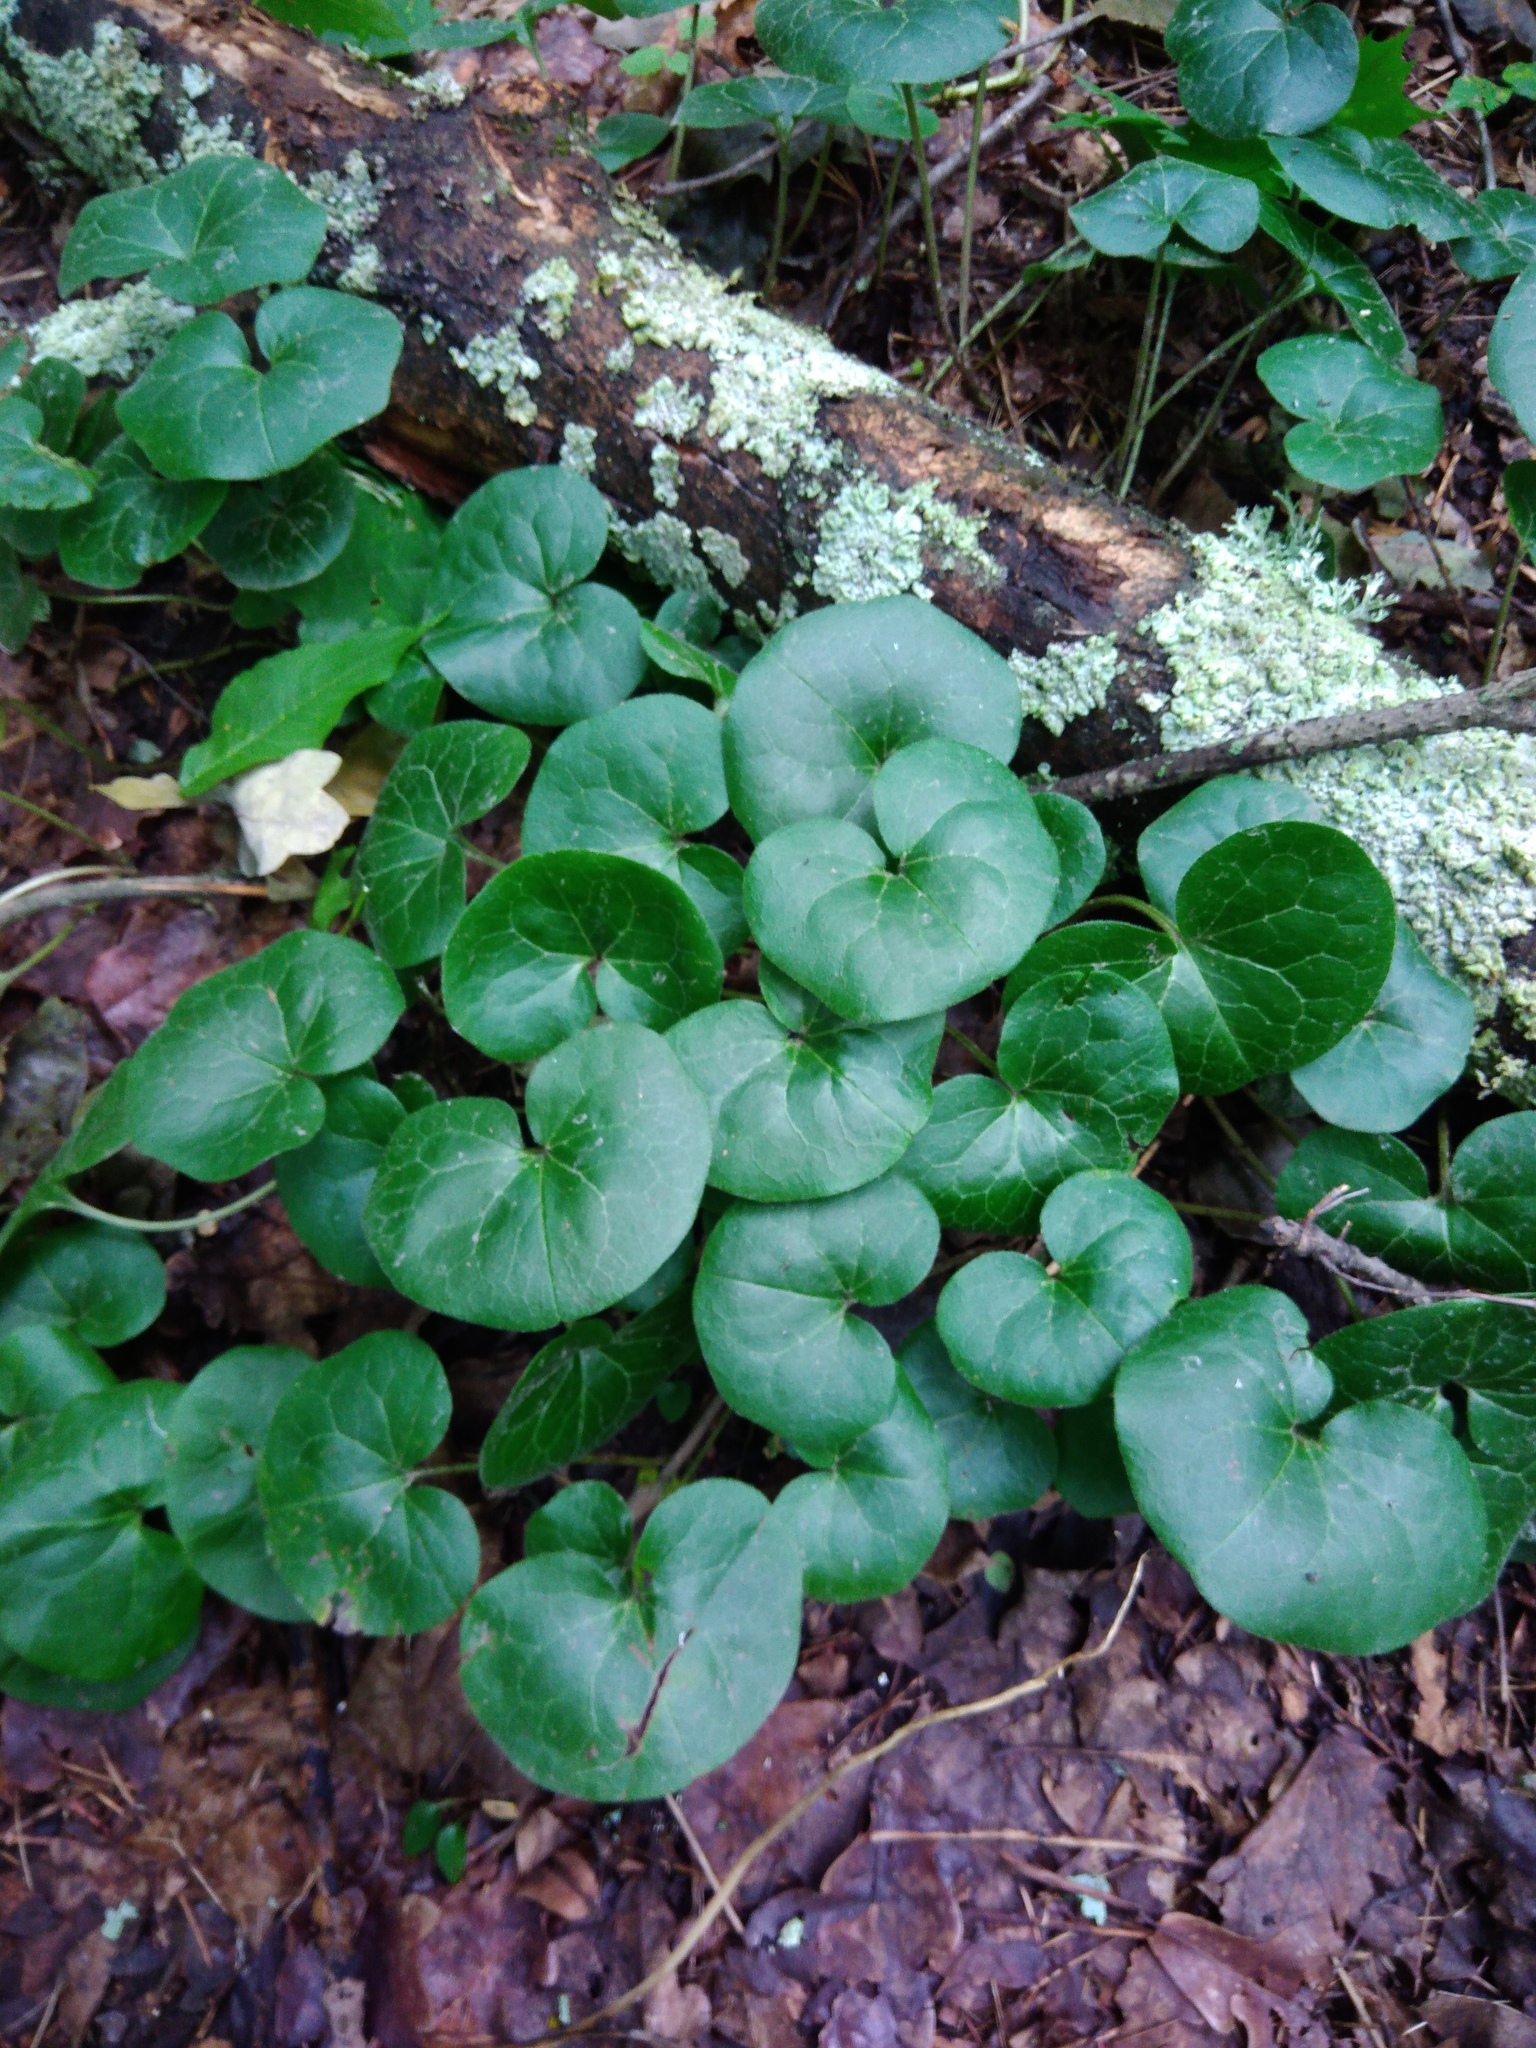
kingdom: Plantae
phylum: Tracheophyta
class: Magnoliopsida
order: Piperales
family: Aristolochiaceae
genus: Asarum
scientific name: Asarum europaeum
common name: Asarabacca
